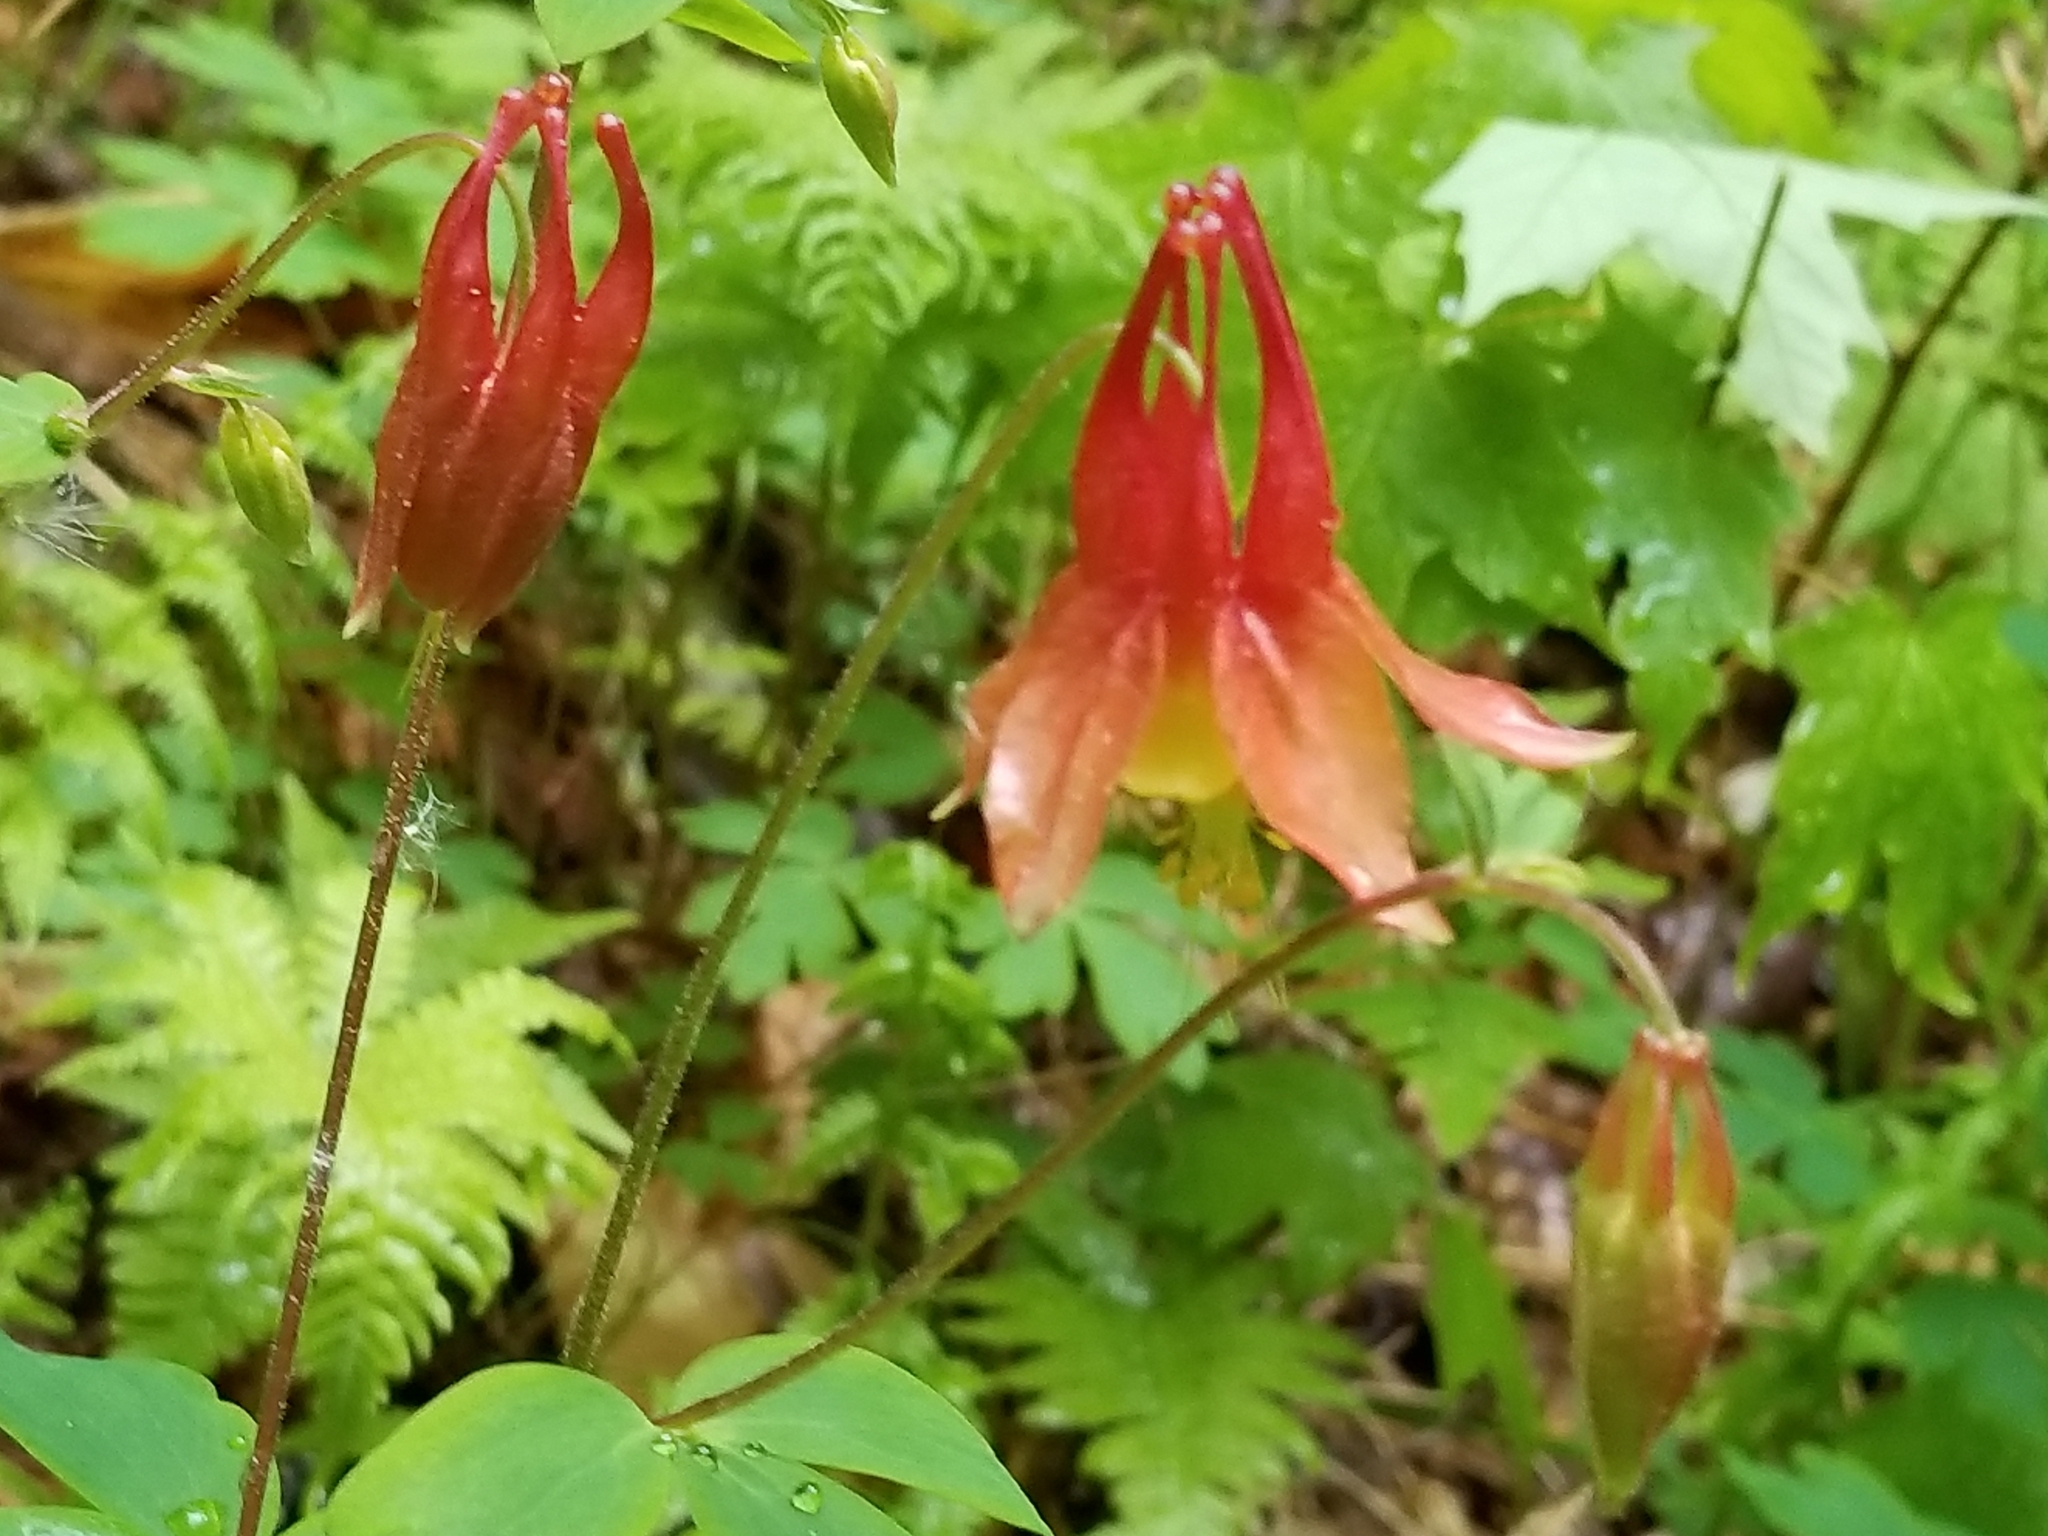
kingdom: Plantae
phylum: Tracheophyta
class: Magnoliopsida
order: Ranunculales
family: Ranunculaceae
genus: Aquilegia
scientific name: Aquilegia canadensis
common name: American columbine
